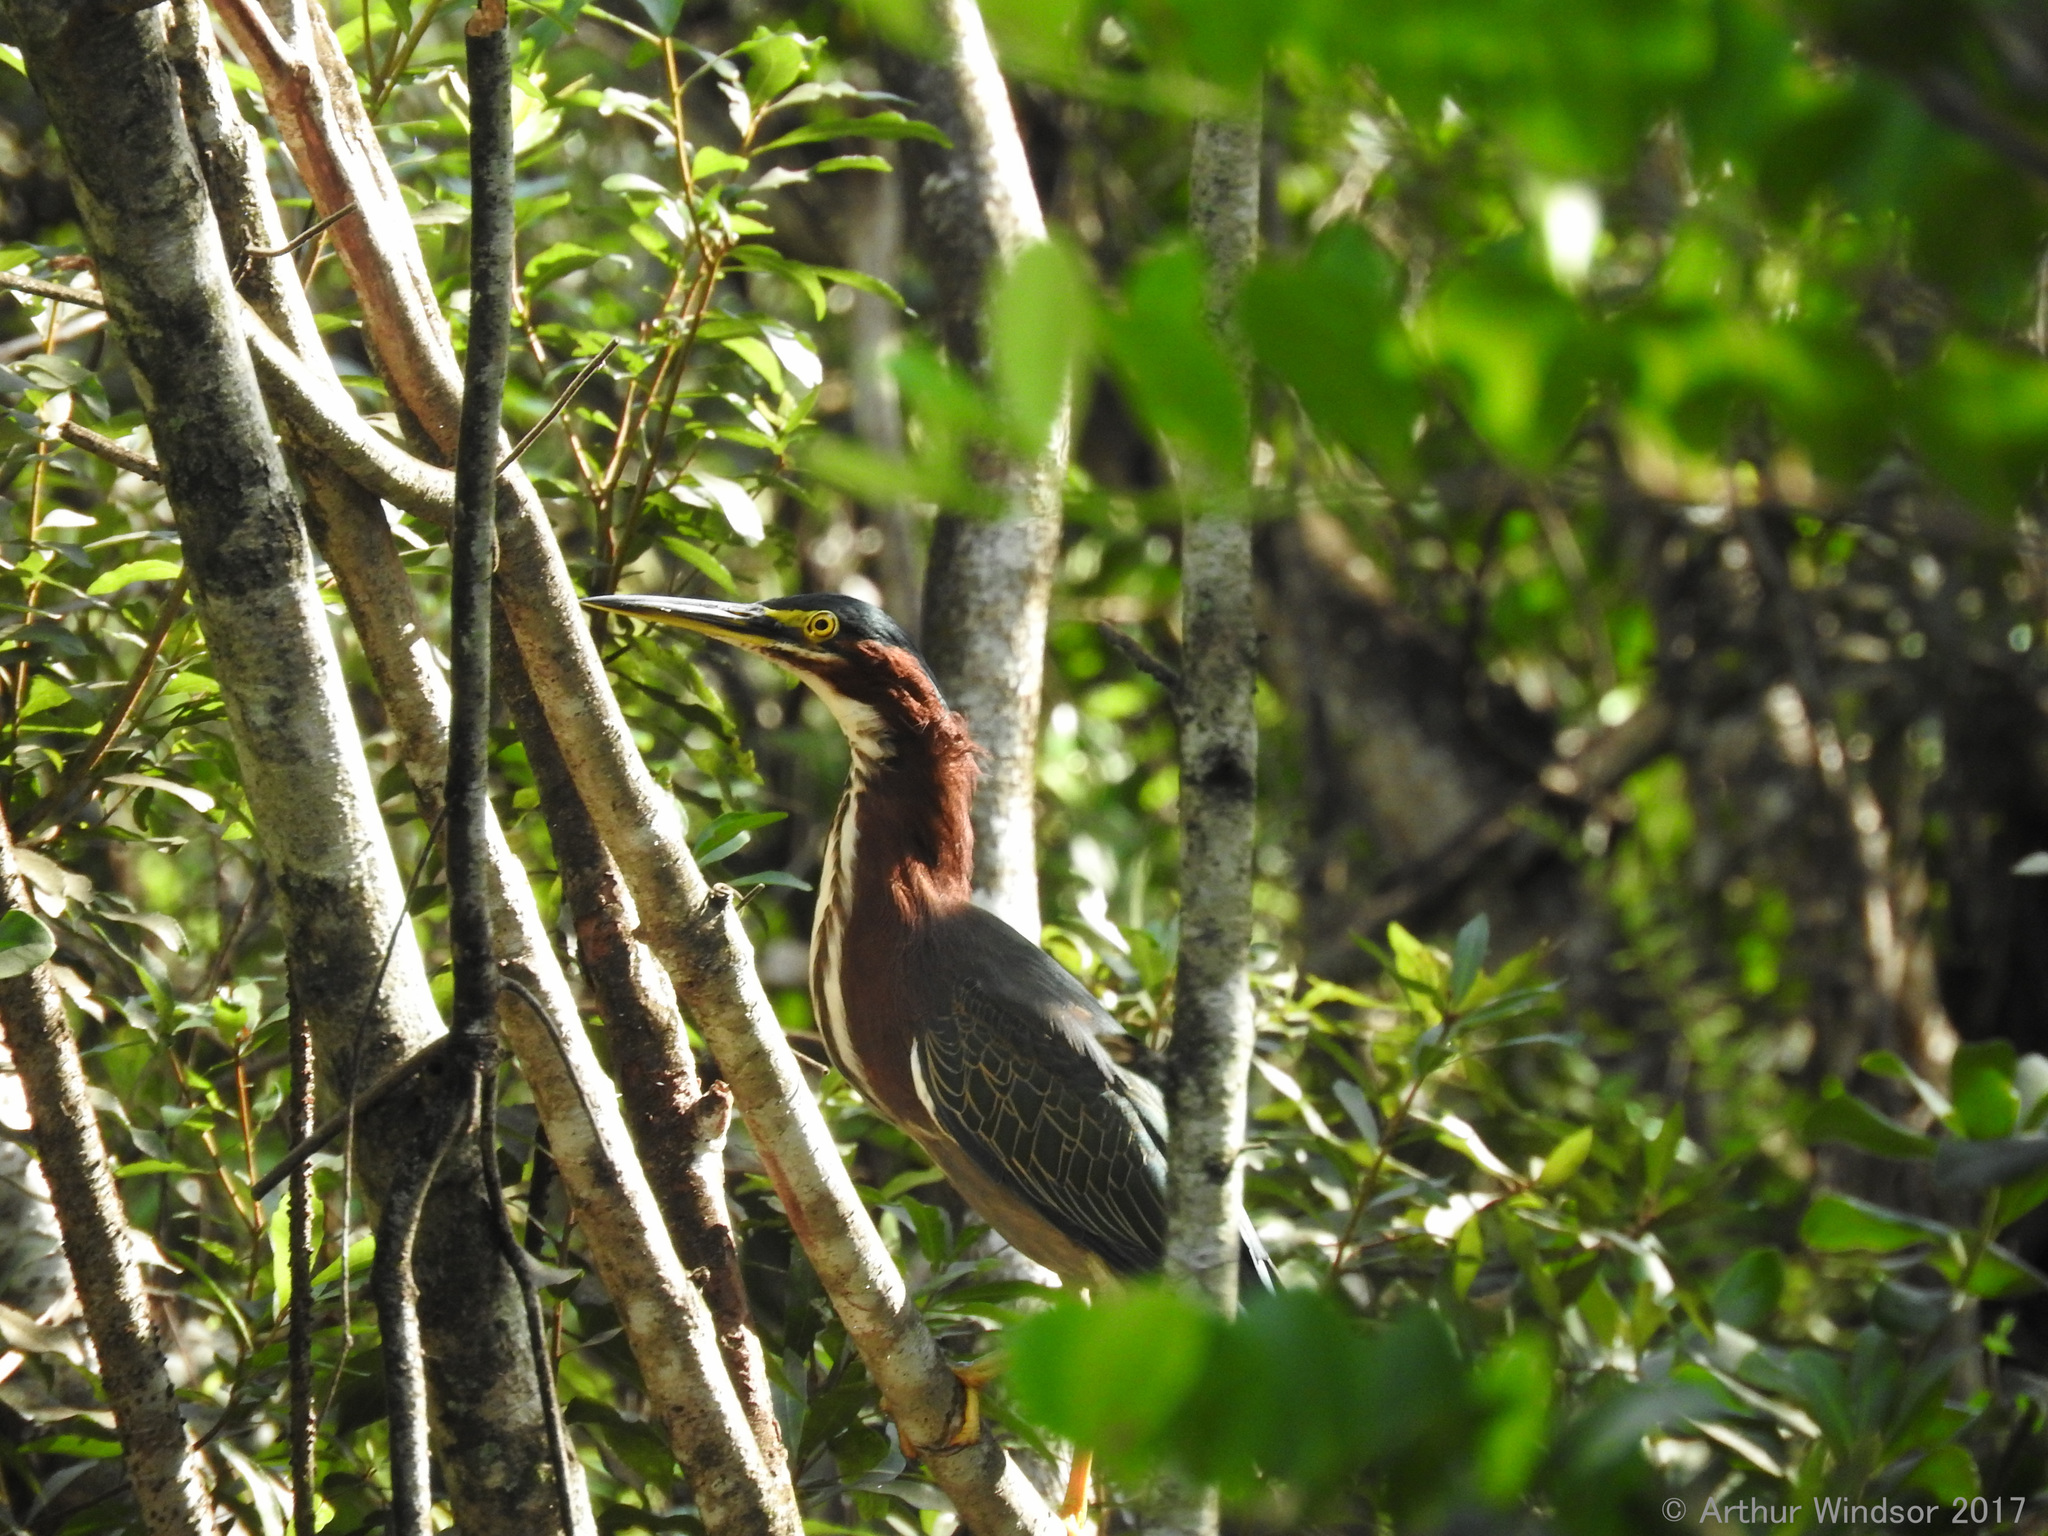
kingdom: Animalia
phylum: Chordata
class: Aves
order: Pelecaniformes
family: Ardeidae
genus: Butorides
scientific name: Butorides virescens
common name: Green heron
